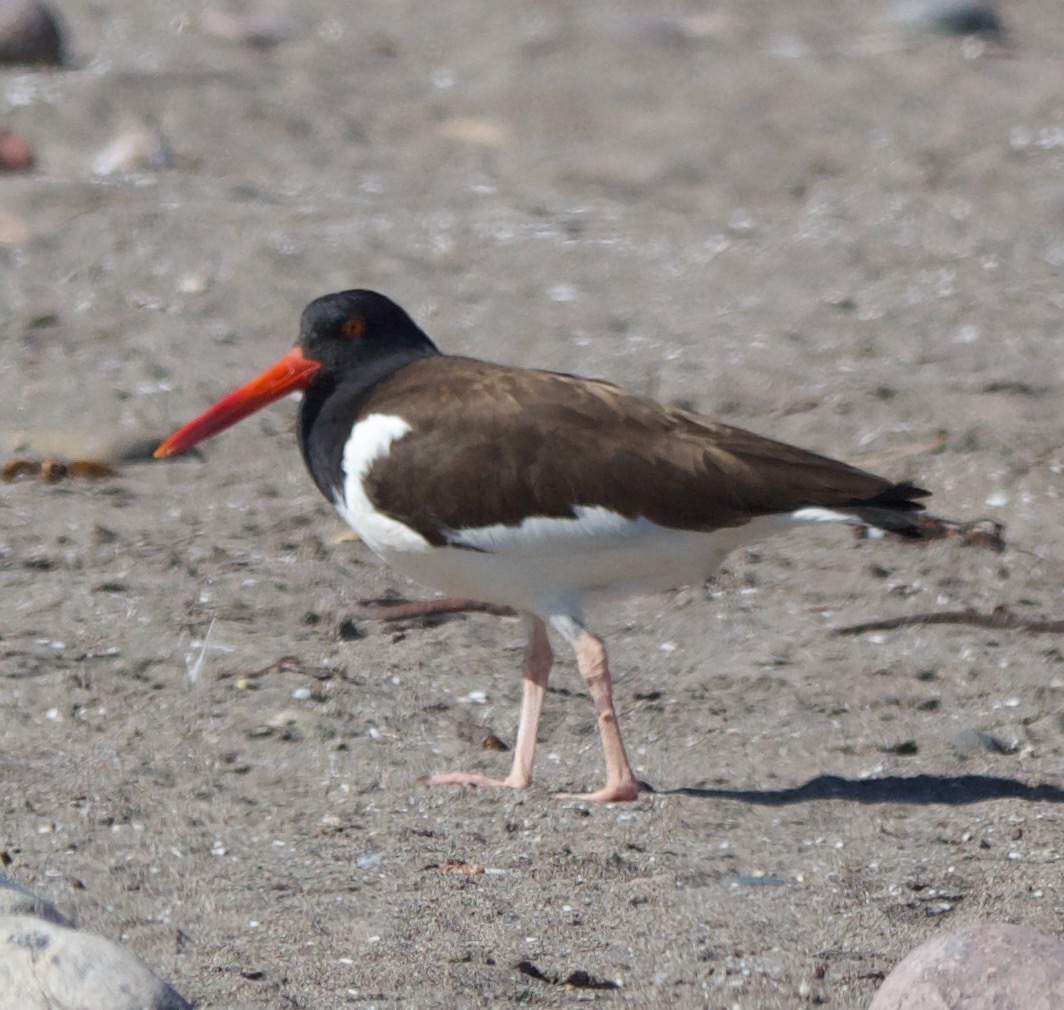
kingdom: Animalia
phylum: Chordata
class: Aves
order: Charadriiformes
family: Haematopodidae
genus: Haematopus
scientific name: Haematopus palliatus
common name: American oystercatcher
